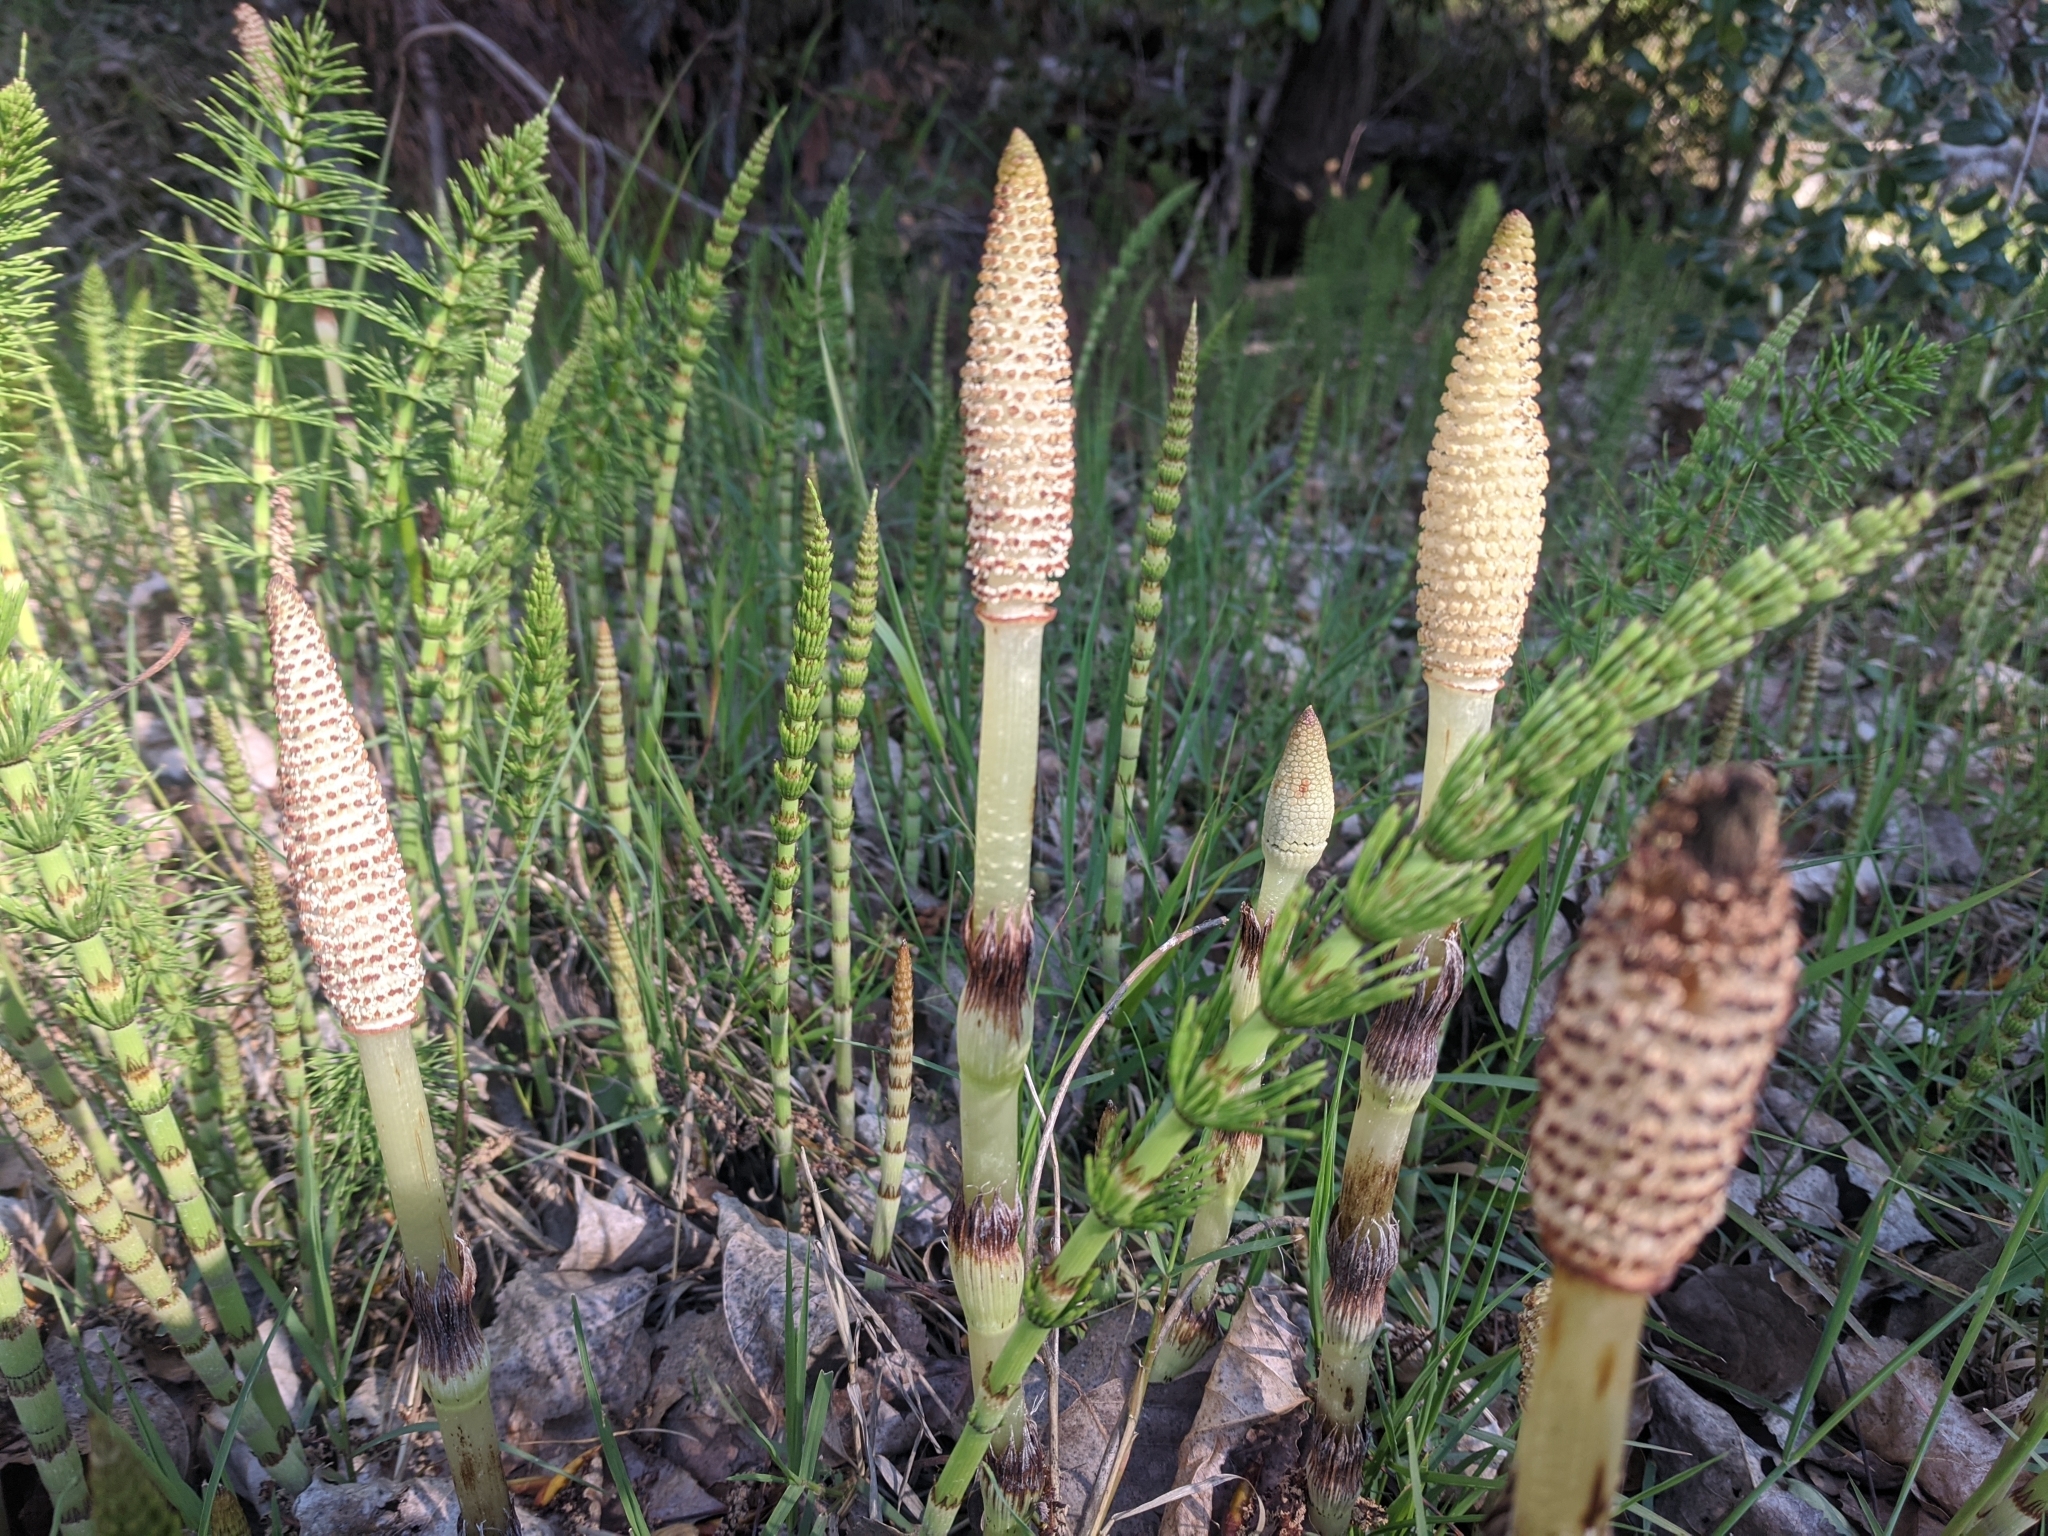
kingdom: Plantae
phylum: Tracheophyta
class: Polypodiopsida
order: Equisetales
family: Equisetaceae
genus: Equisetum
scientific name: Equisetum telmateia
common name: Great horsetail
